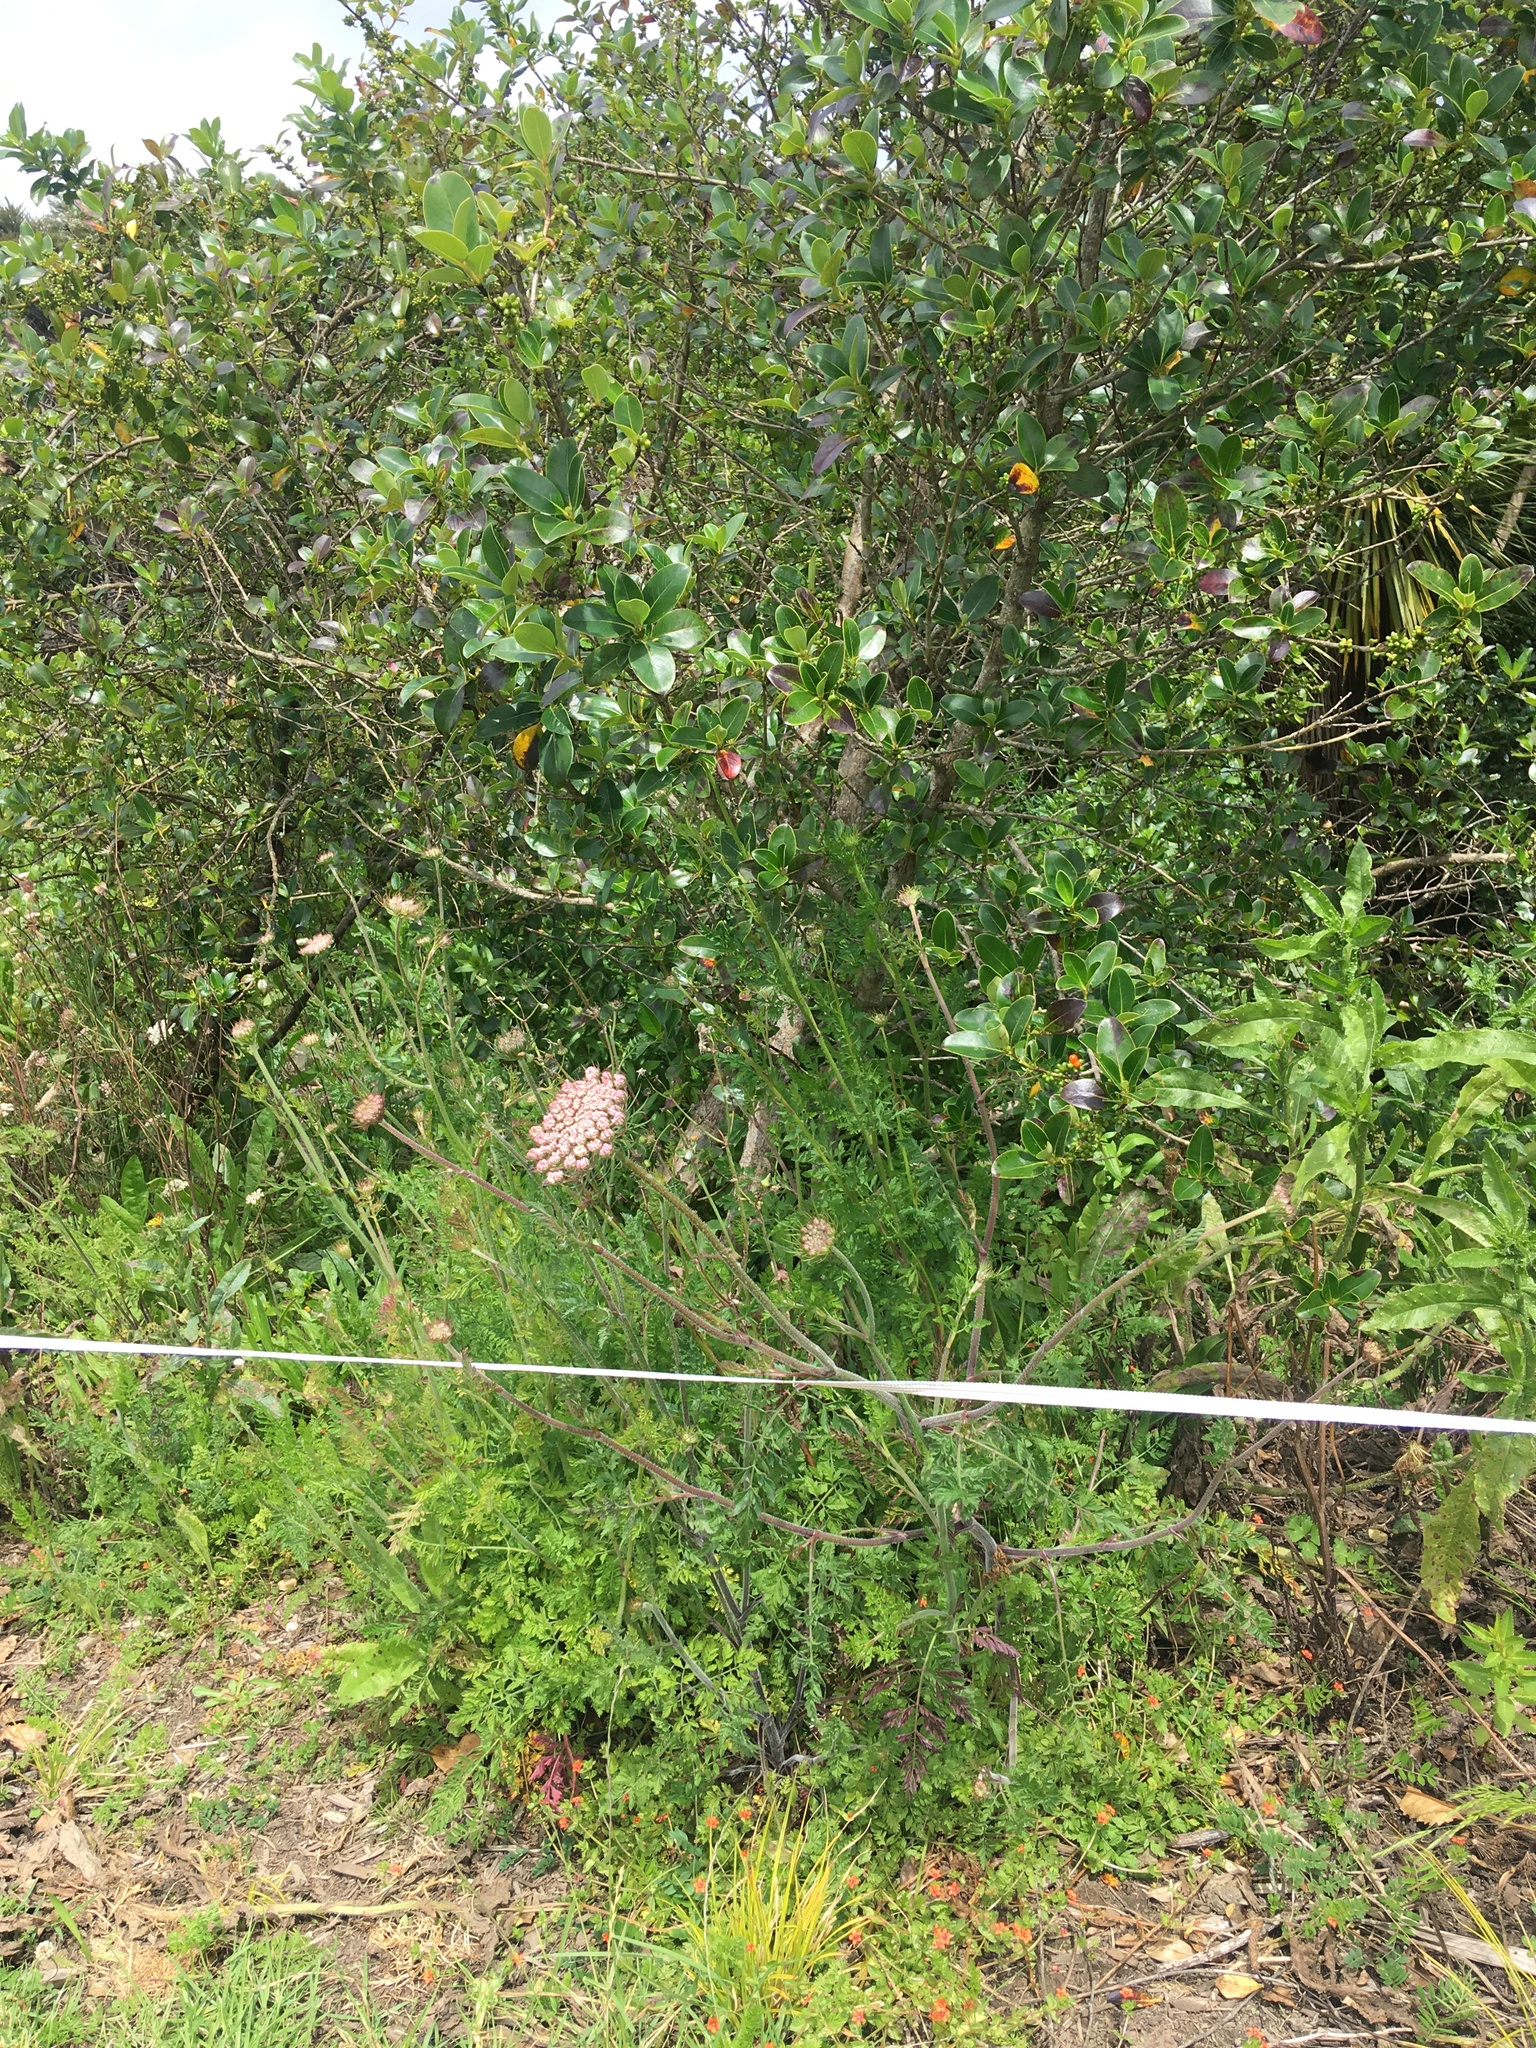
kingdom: Plantae
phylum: Tracheophyta
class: Magnoliopsida
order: Gentianales
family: Rubiaceae
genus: Coprosma
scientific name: Coprosma robusta
